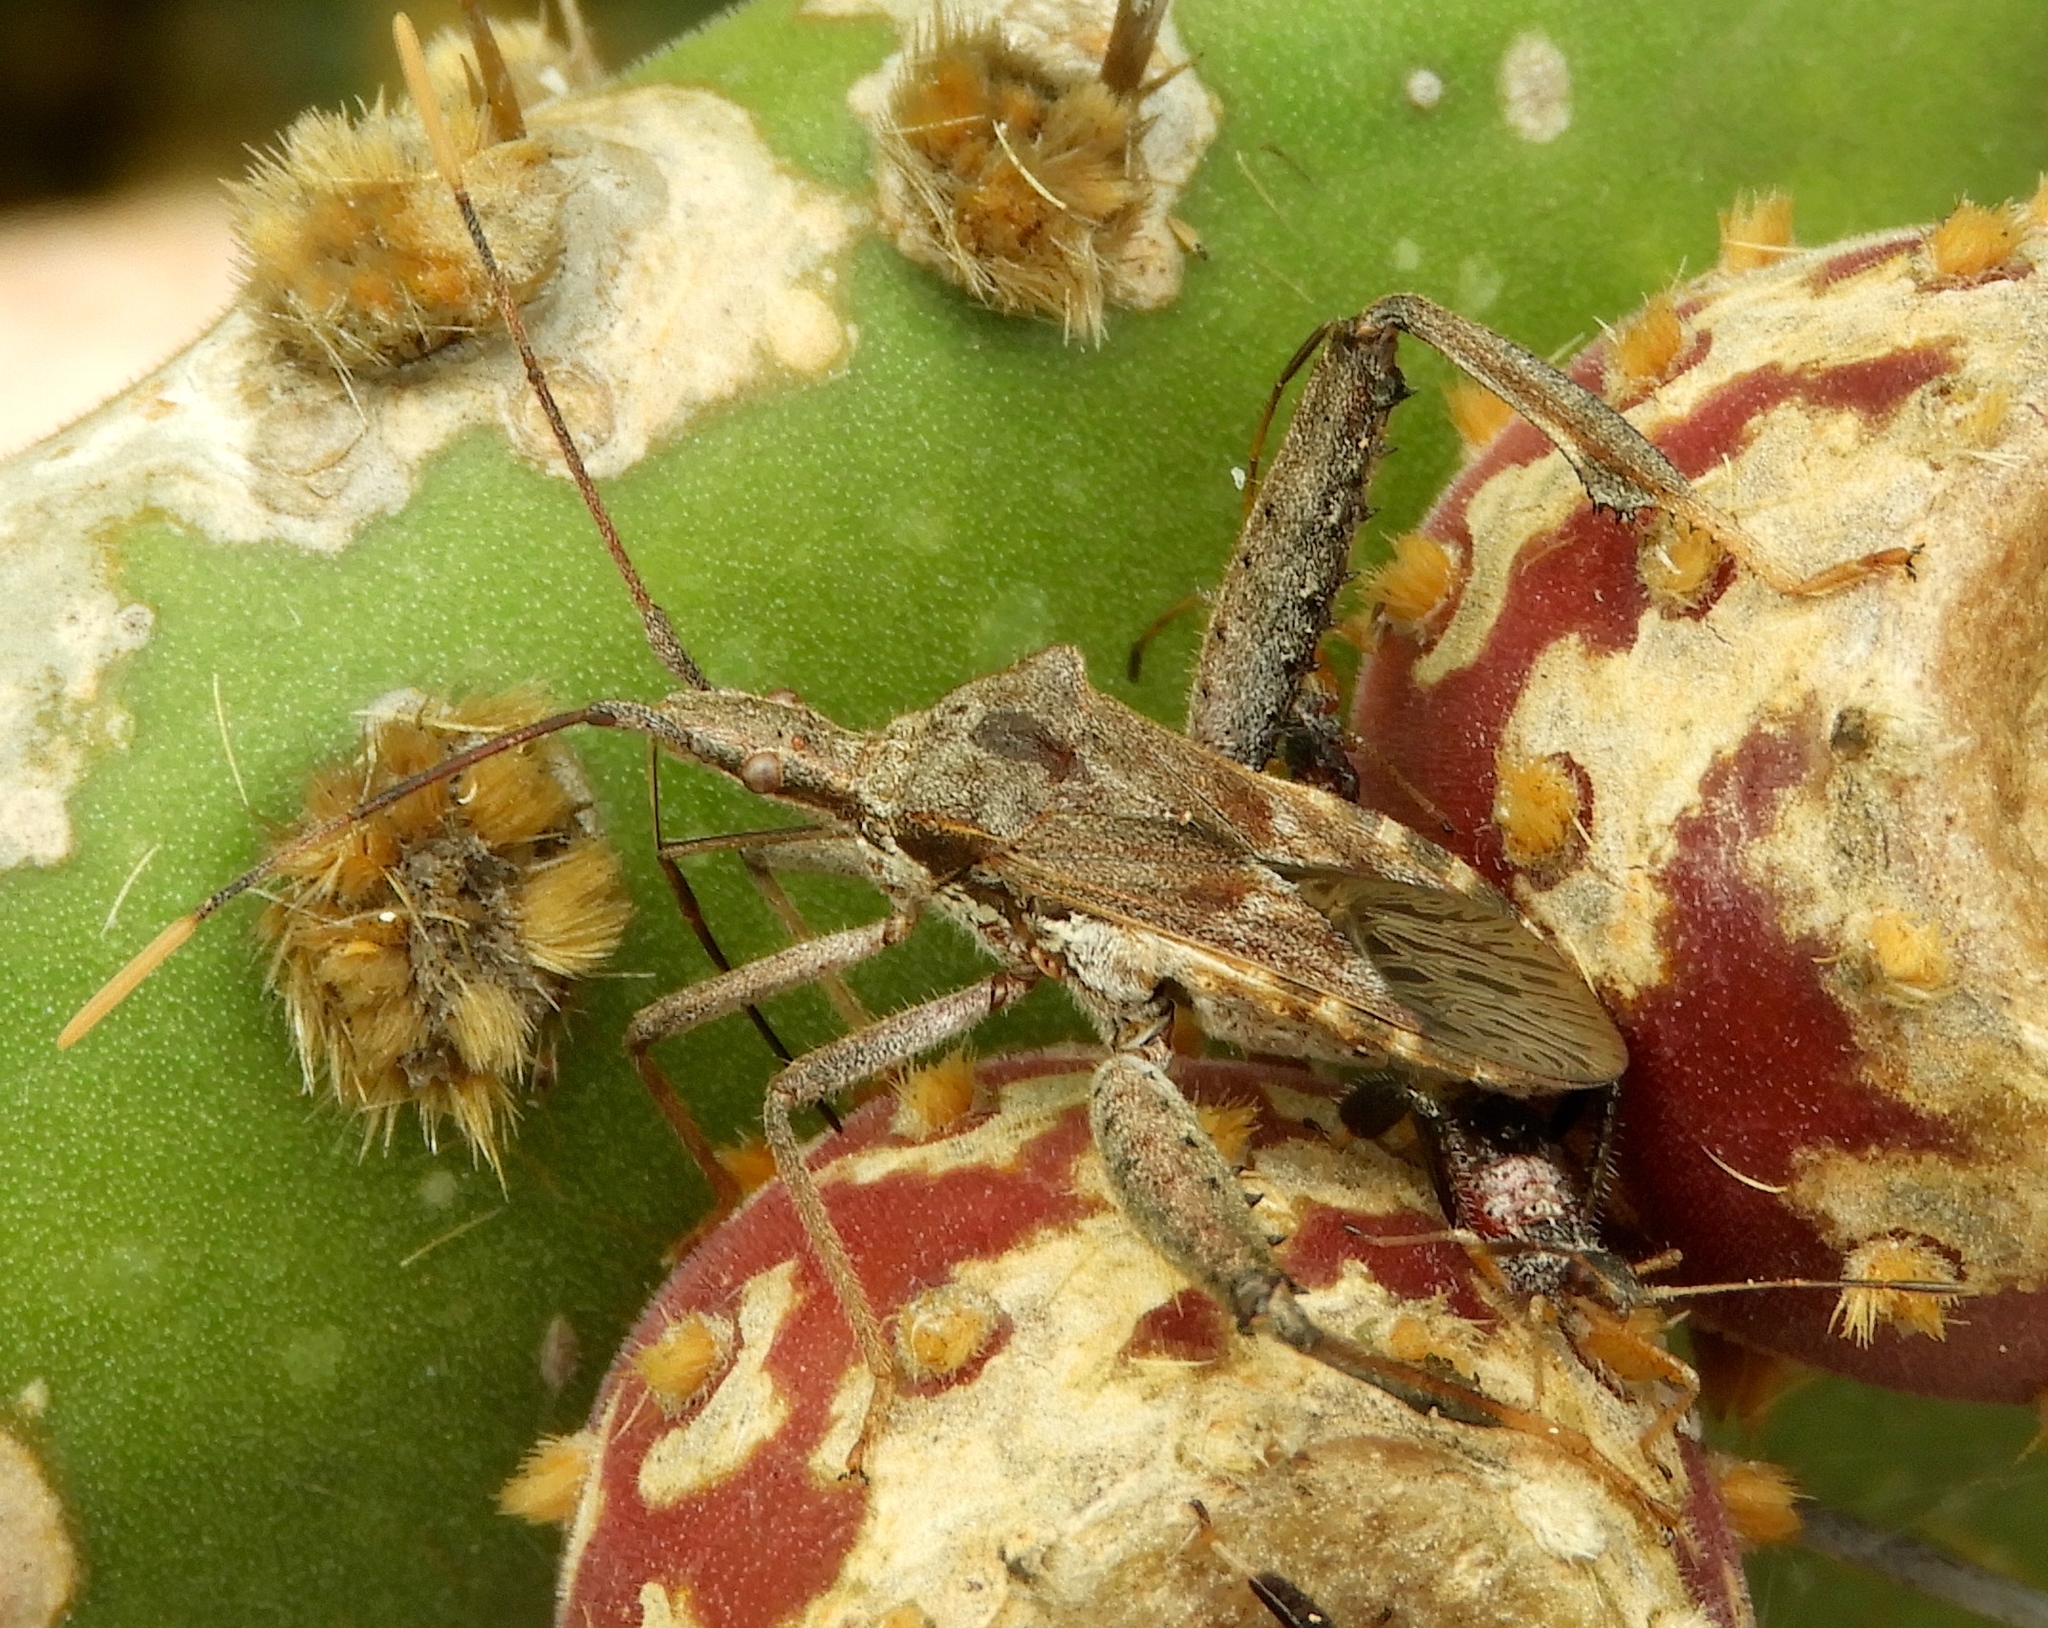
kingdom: Animalia
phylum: Arthropoda
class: Insecta
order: Hemiptera
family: Coreidae
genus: Narnia
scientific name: Narnia
